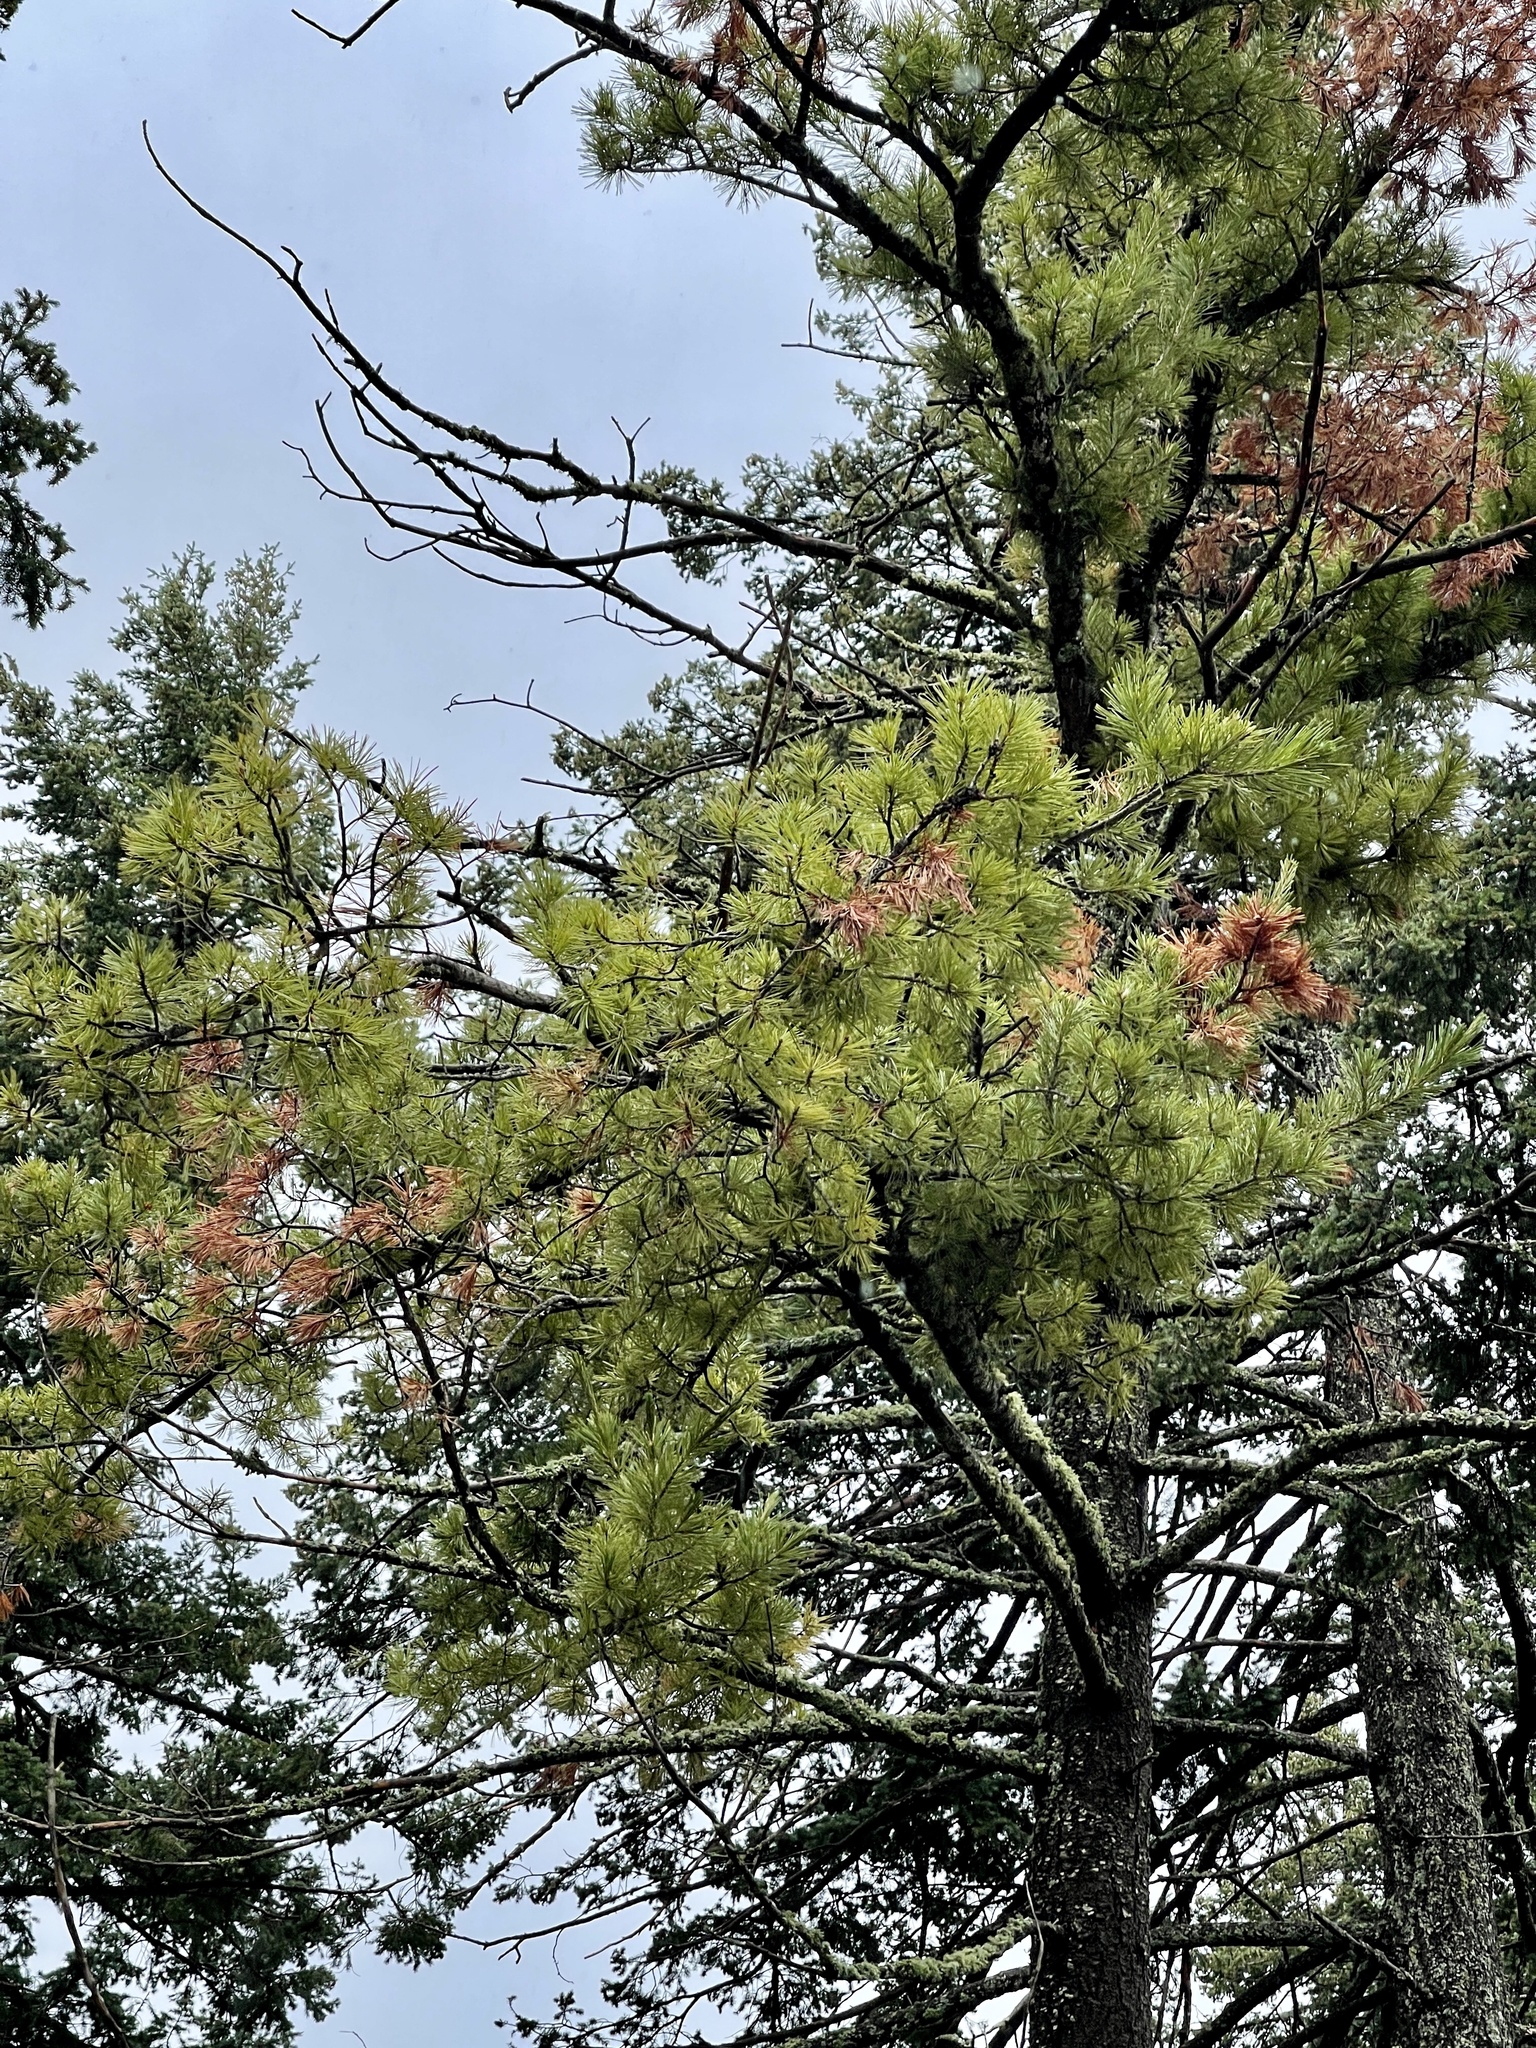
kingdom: Plantae
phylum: Tracheophyta
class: Pinopsida
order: Pinales
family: Pinaceae
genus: Pinus
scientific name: Pinus strobiformis
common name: Southwestern white pine
